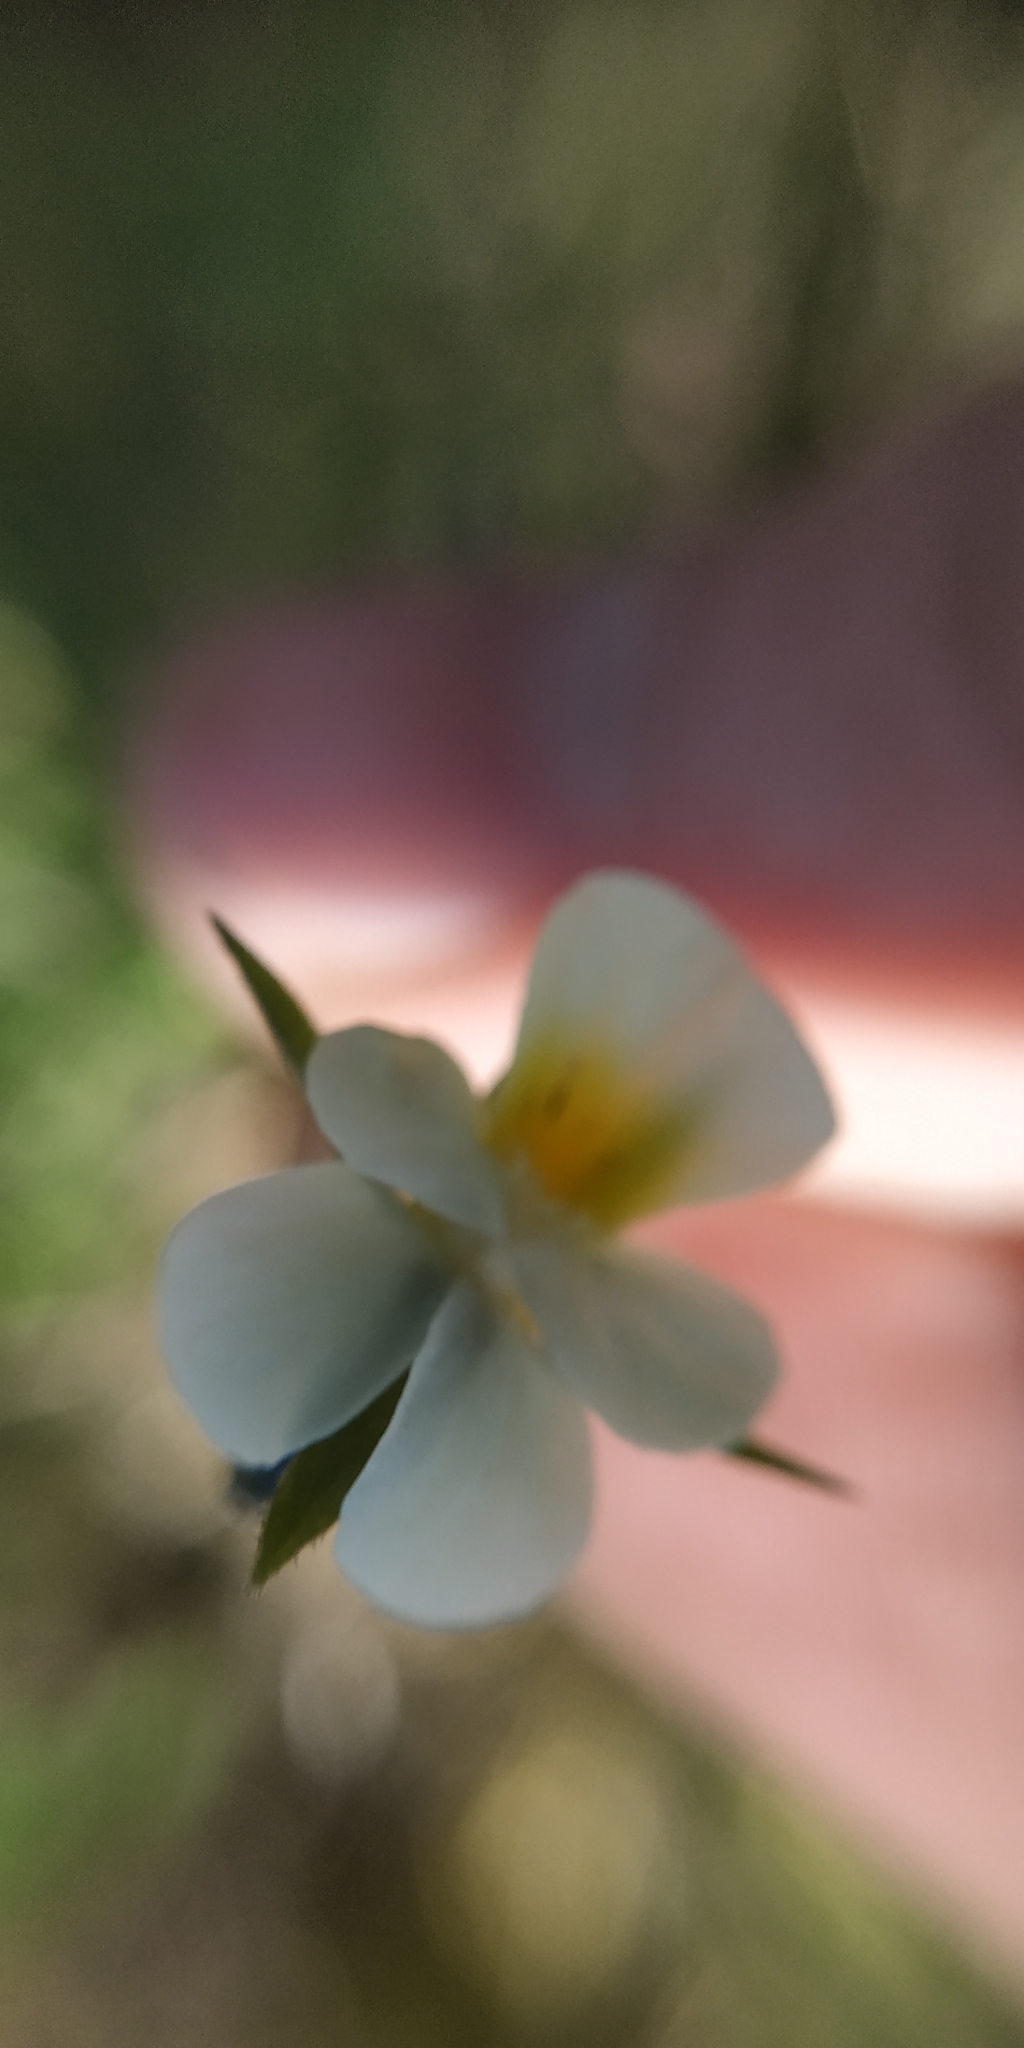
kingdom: Plantae
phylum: Tracheophyta
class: Magnoliopsida
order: Malpighiales
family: Violaceae
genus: Viola
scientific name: Viola arvensis
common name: Field pansy
